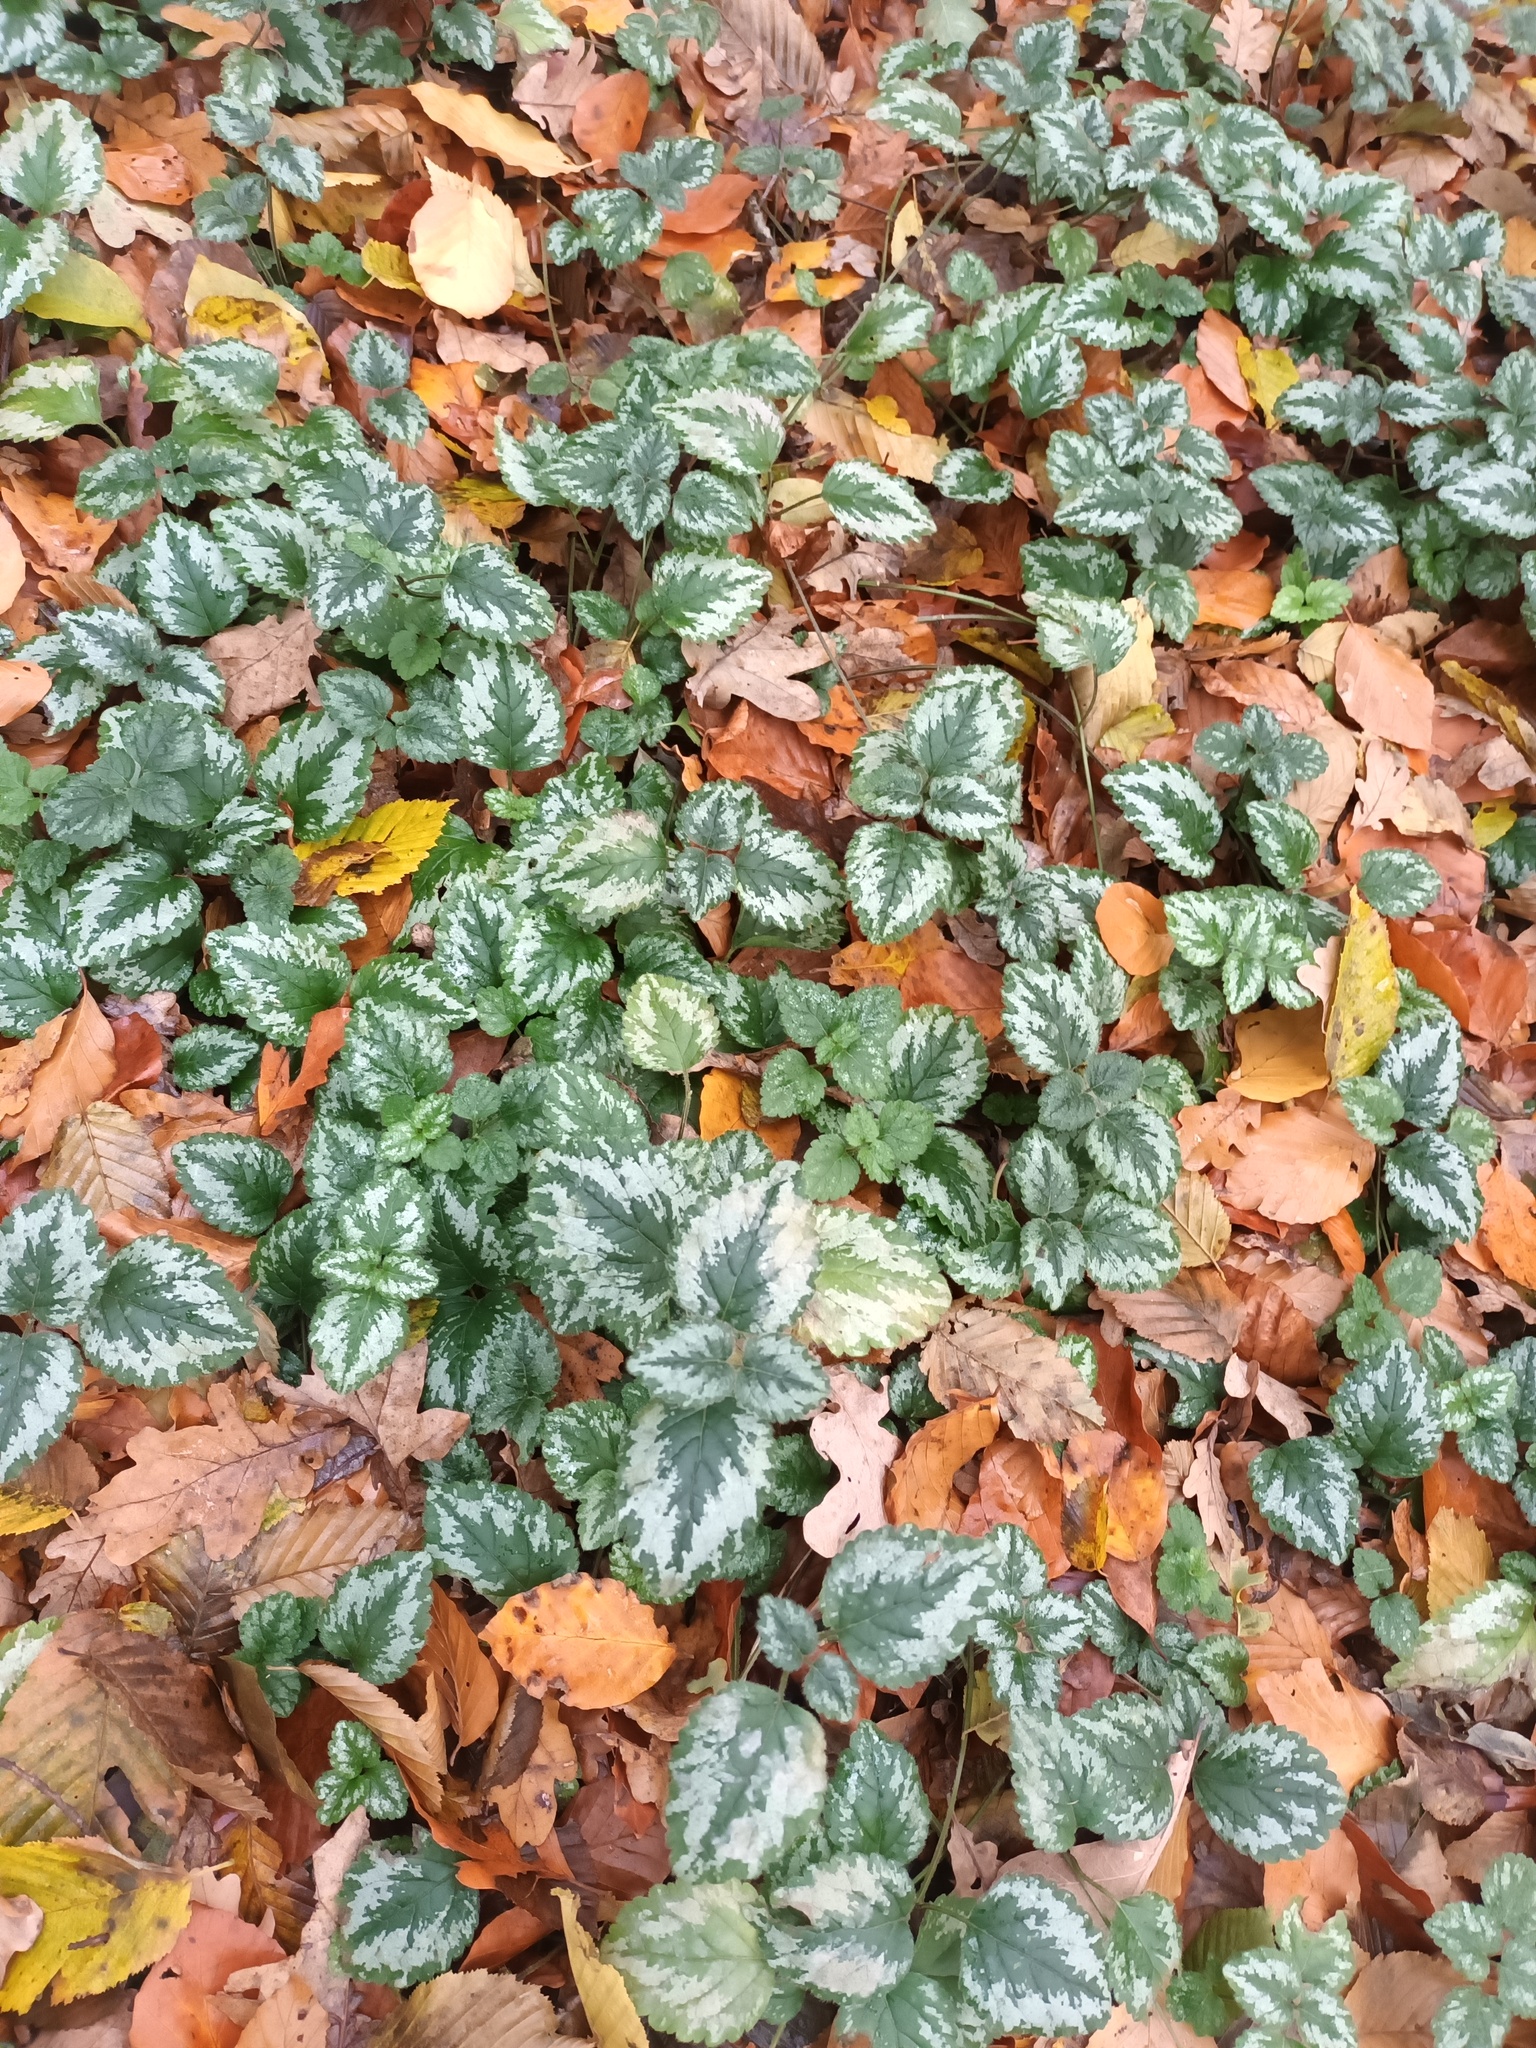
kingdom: Plantae
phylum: Tracheophyta
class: Magnoliopsida
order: Lamiales
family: Lamiaceae
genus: Lamium
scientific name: Lamium galeobdolon
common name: Yellow archangel
